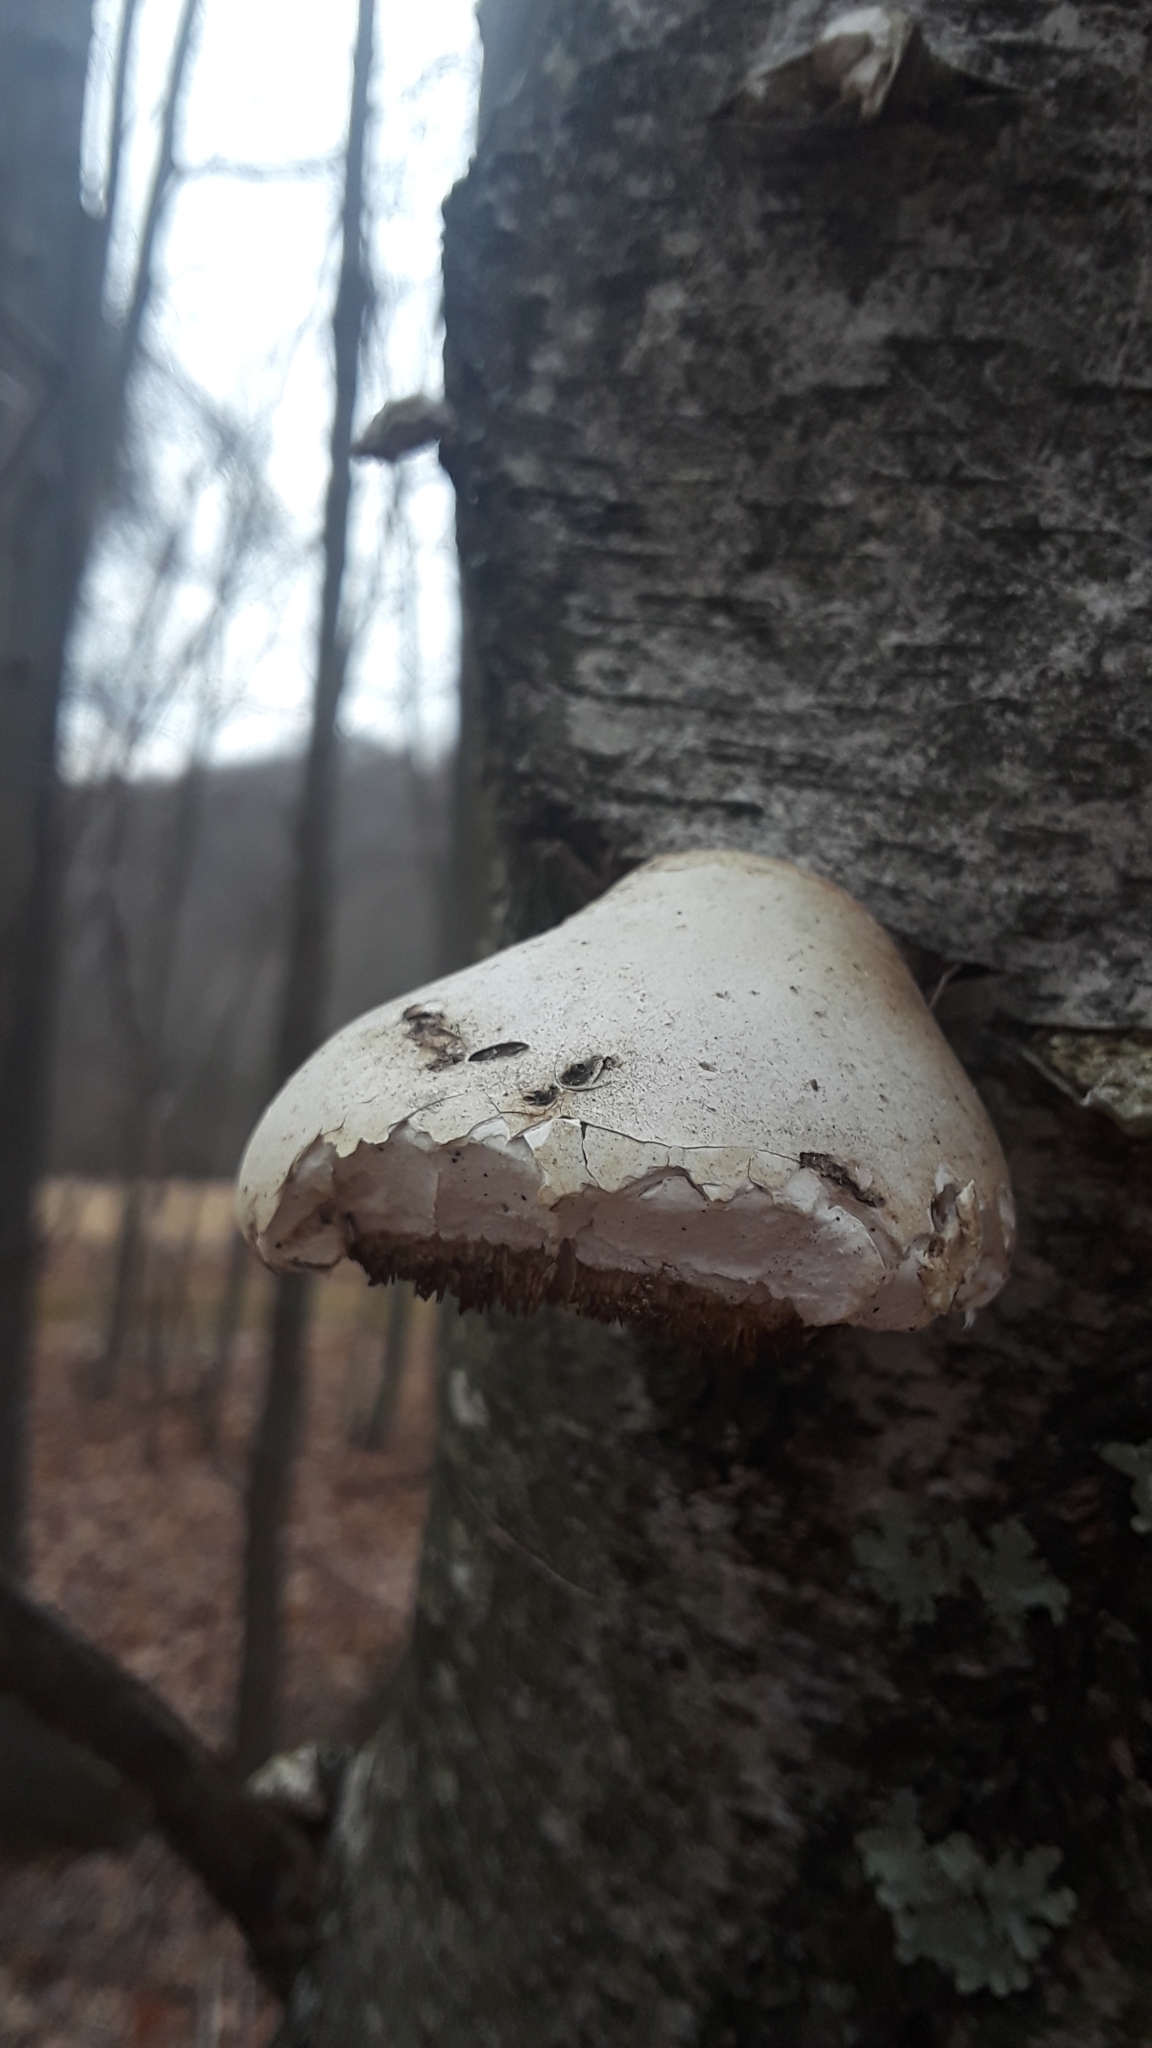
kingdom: Fungi
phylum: Basidiomycota
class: Agaricomycetes
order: Polyporales
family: Fomitopsidaceae
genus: Fomitopsis
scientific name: Fomitopsis betulina
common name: Birch polypore
